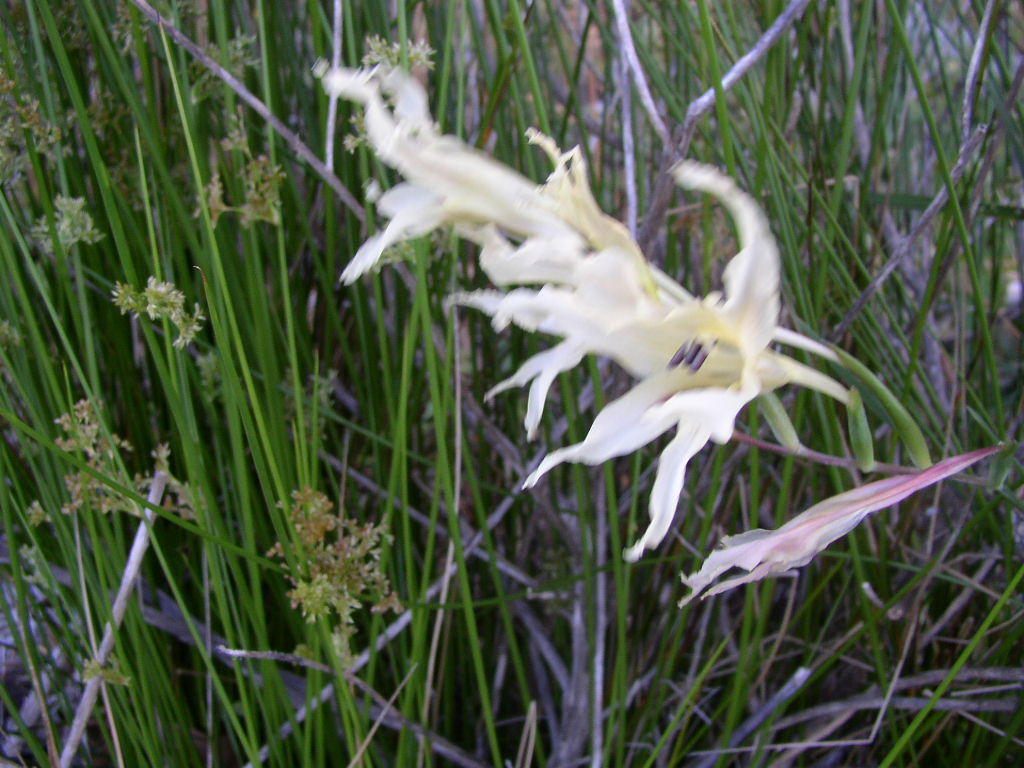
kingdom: Plantae
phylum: Tracheophyta
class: Liliopsida
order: Asparagales
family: Iridaceae
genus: Gladiolus
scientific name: Gladiolus undulatus
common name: Large painted-lady
